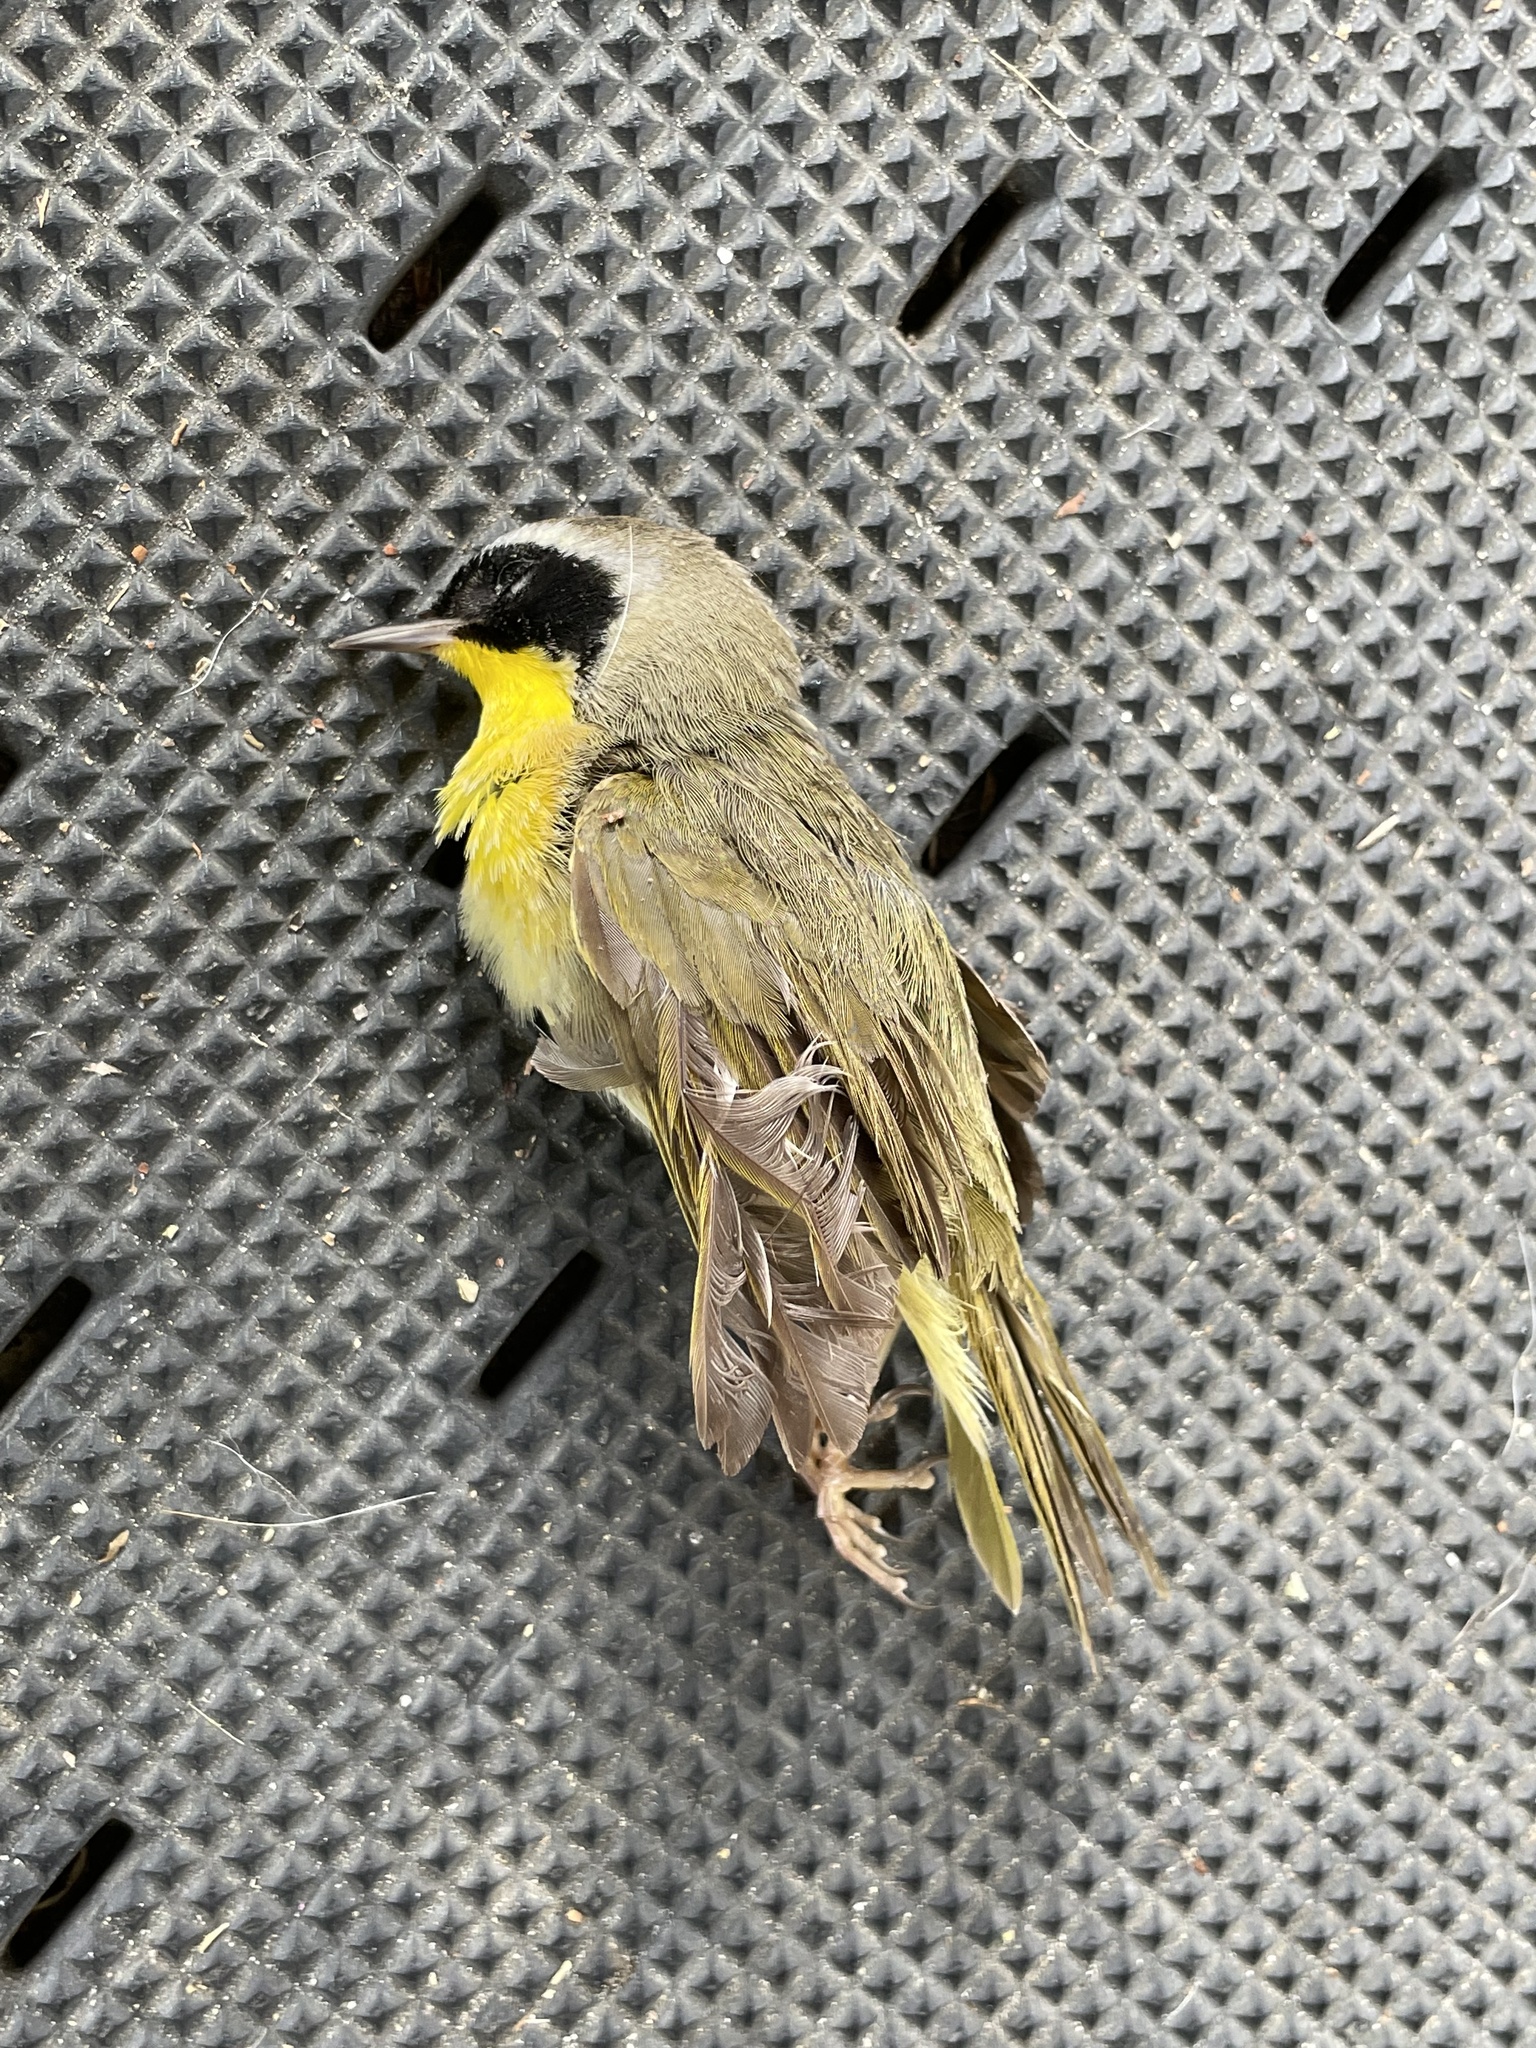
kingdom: Animalia
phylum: Chordata
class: Aves
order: Passeriformes
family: Parulidae
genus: Geothlypis
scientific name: Geothlypis trichas
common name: Common yellowthroat
